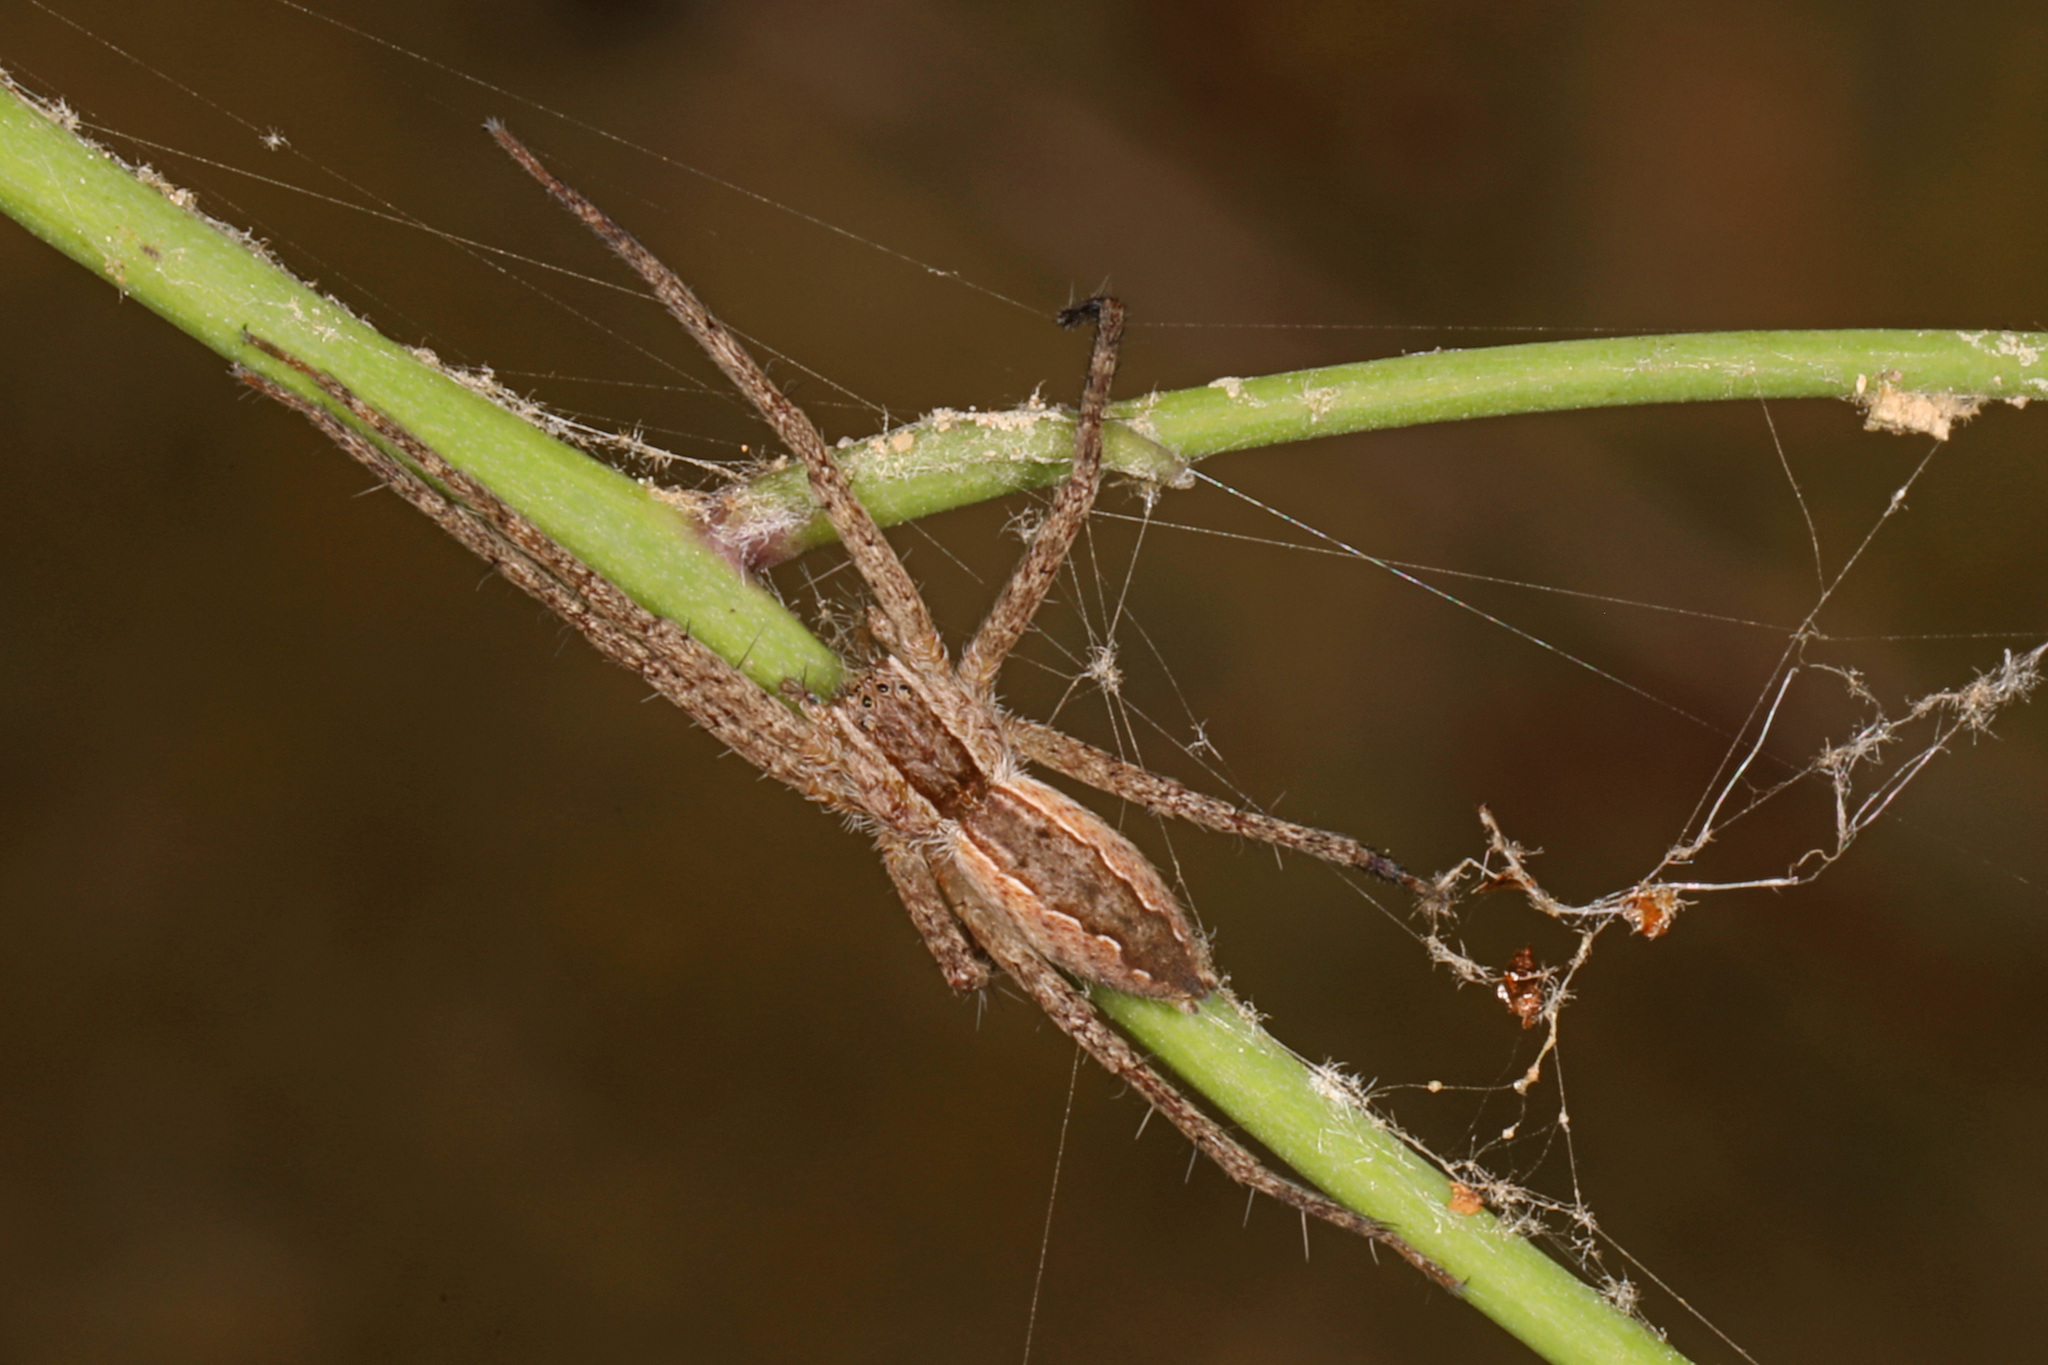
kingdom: Animalia
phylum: Arthropoda
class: Arachnida
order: Araneae
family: Pisauridae
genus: Pisaurina
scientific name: Pisaurina mira
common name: American nursery web spider
